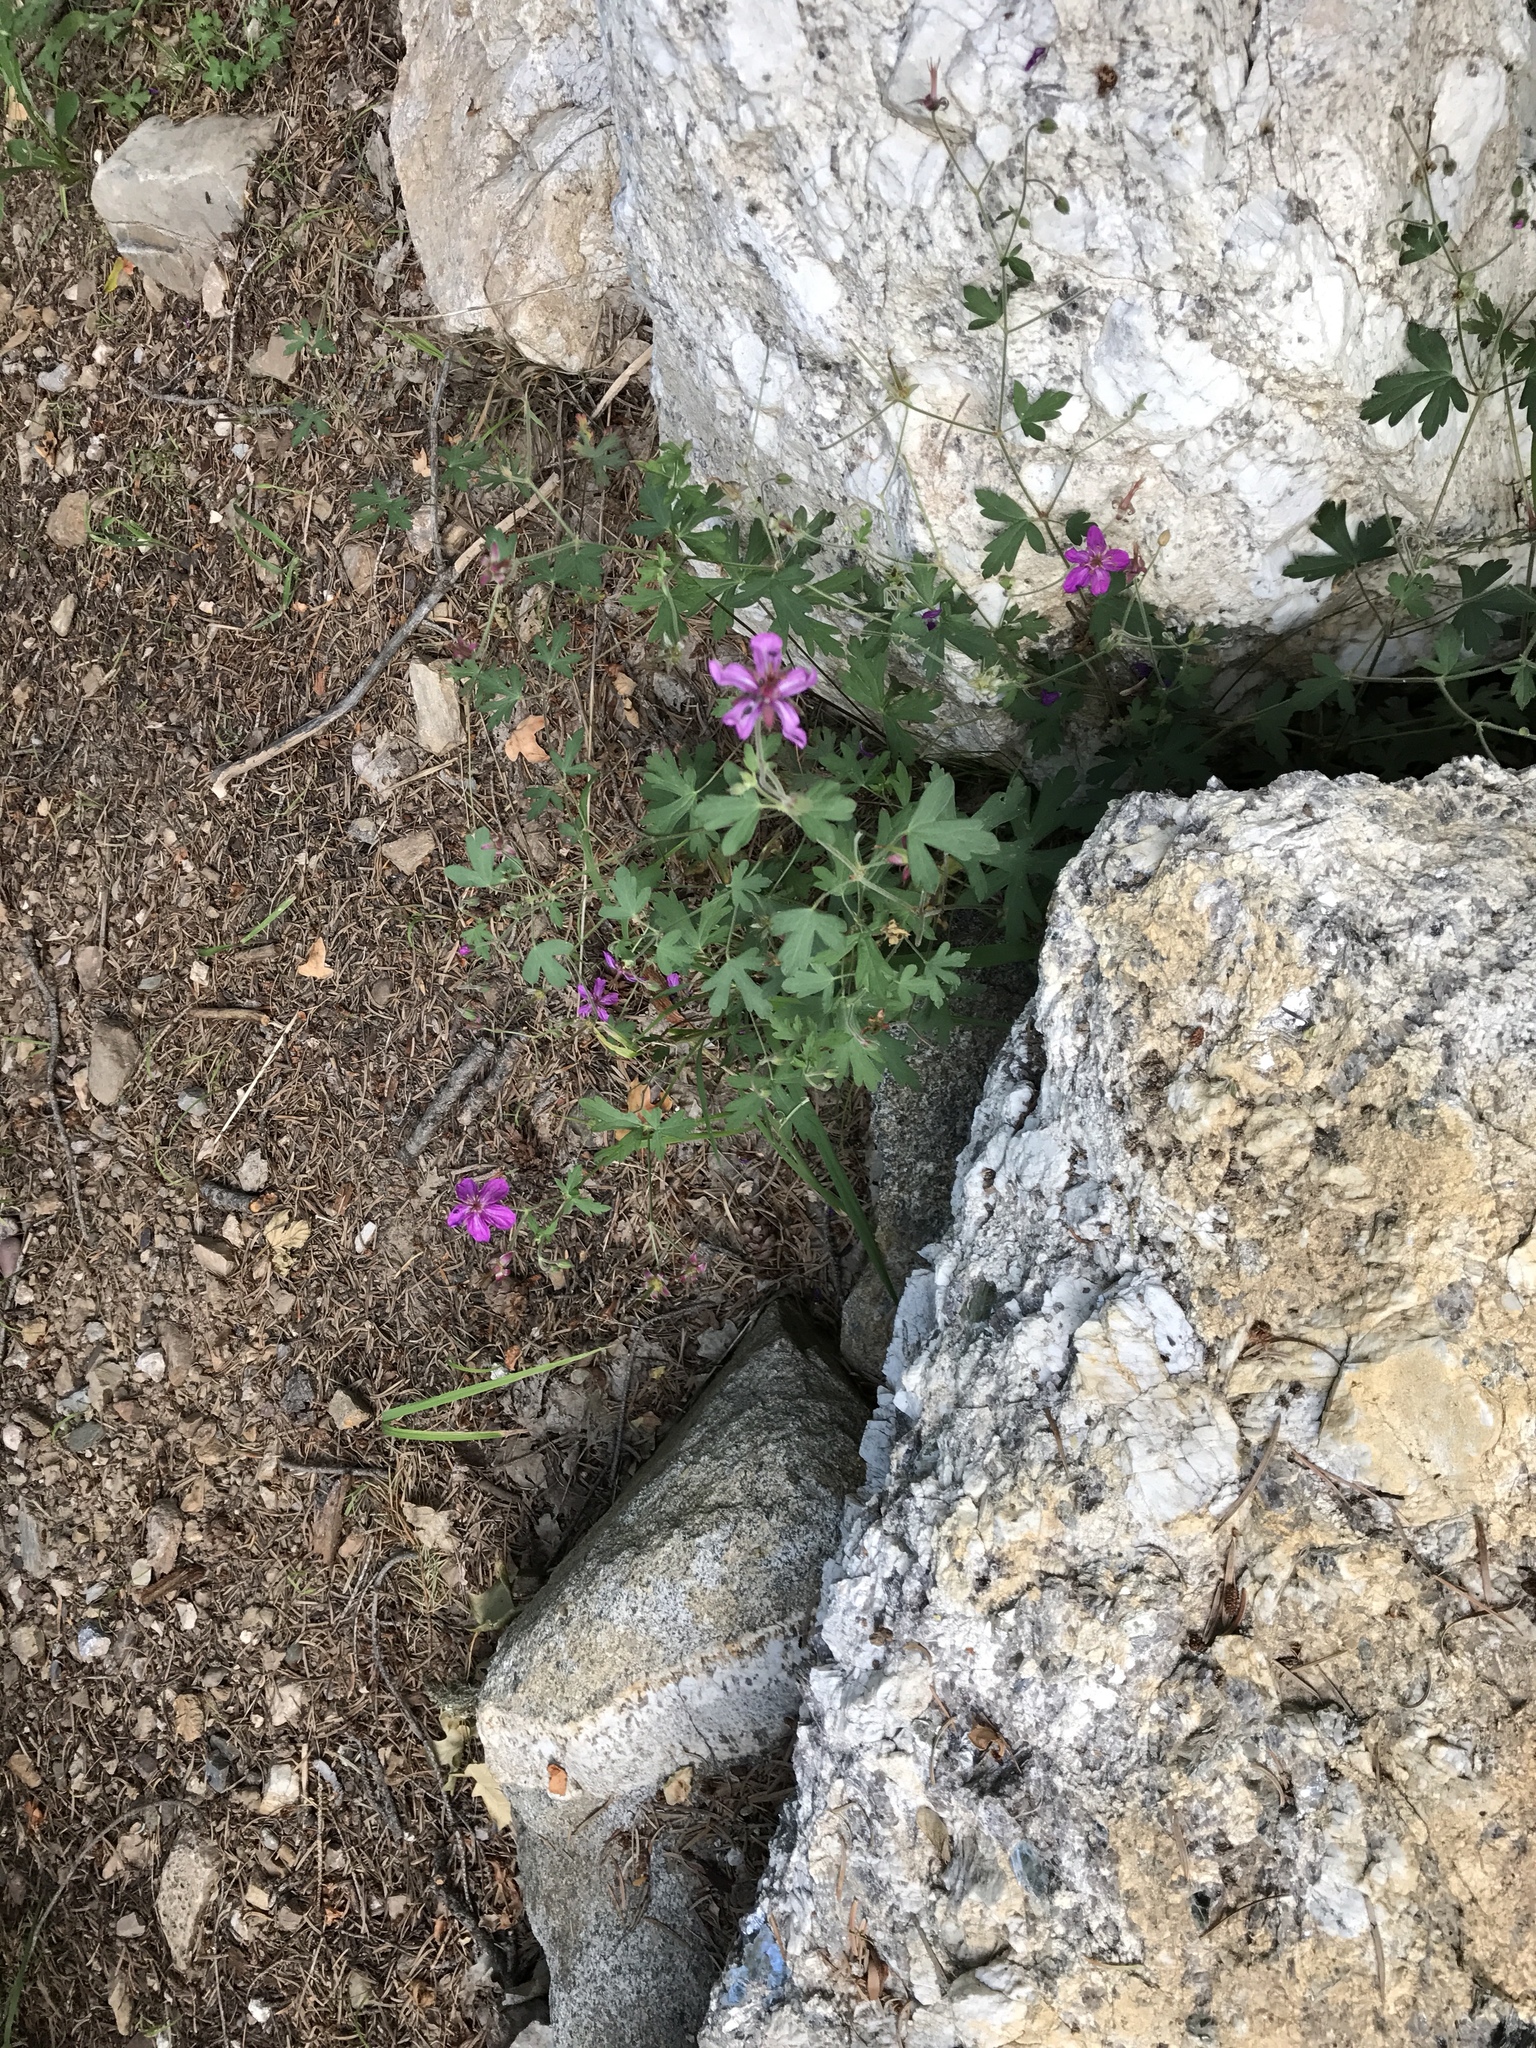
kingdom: Plantae
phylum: Tracheophyta
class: Magnoliopsida
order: Geraniales
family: Geraniaceae
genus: Geranium
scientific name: Geranium caespitosum
